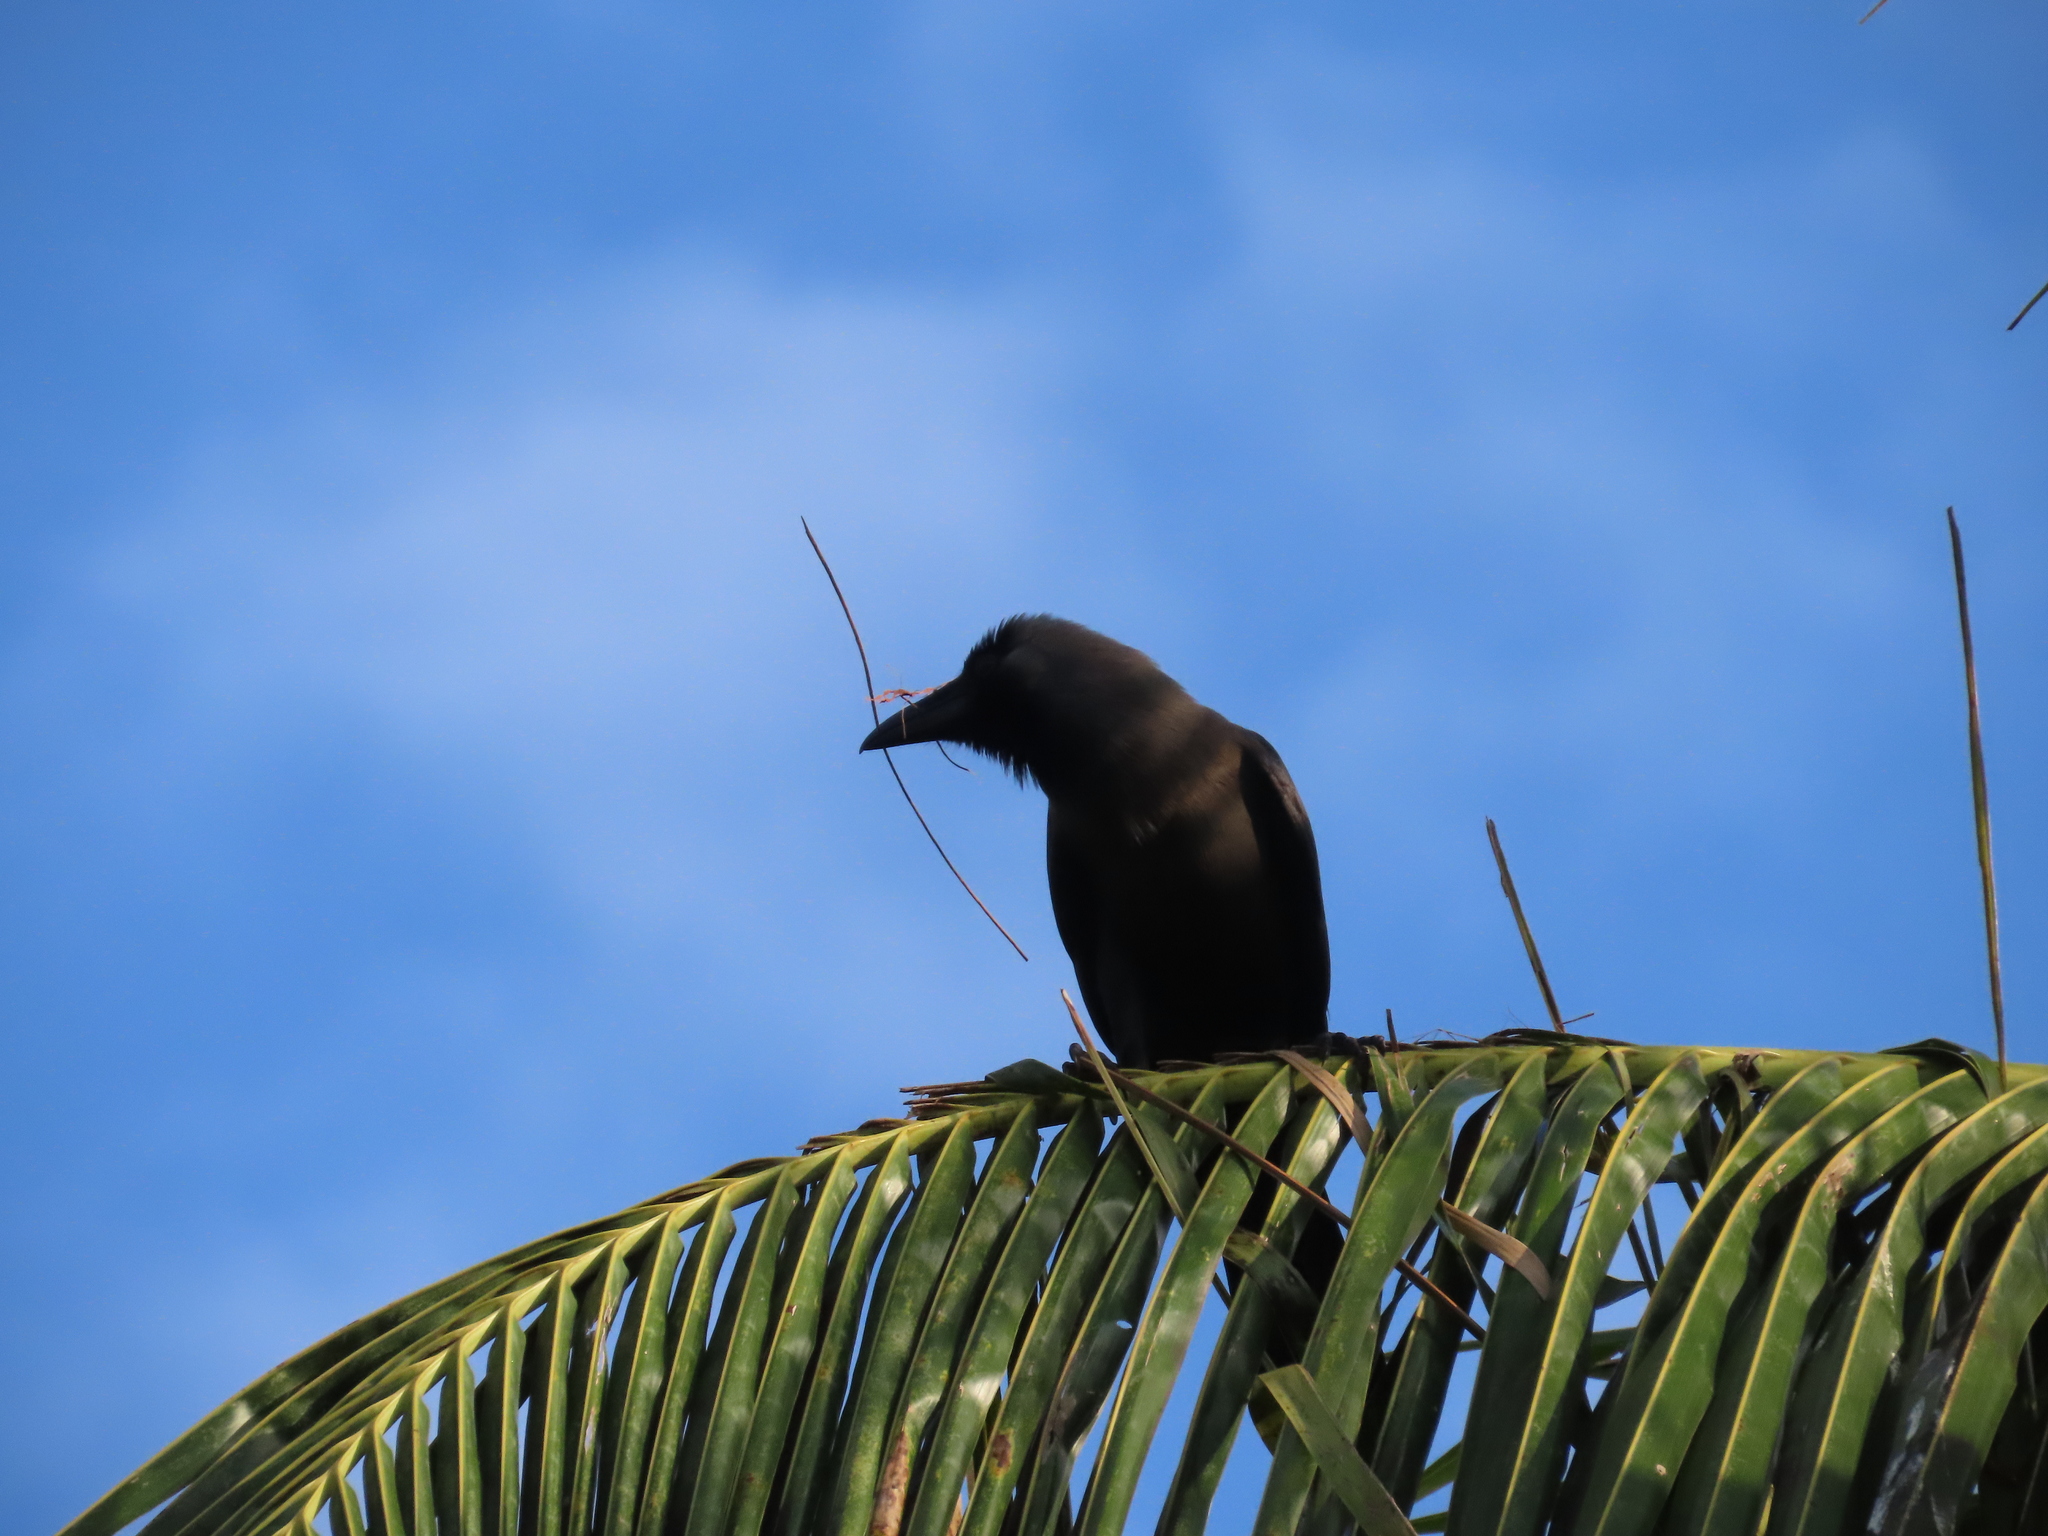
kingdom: Animalia
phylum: Chordata
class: Aves
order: Passeriformes
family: Corvidae
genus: Corvus
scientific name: Corvus splendens
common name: House crow
